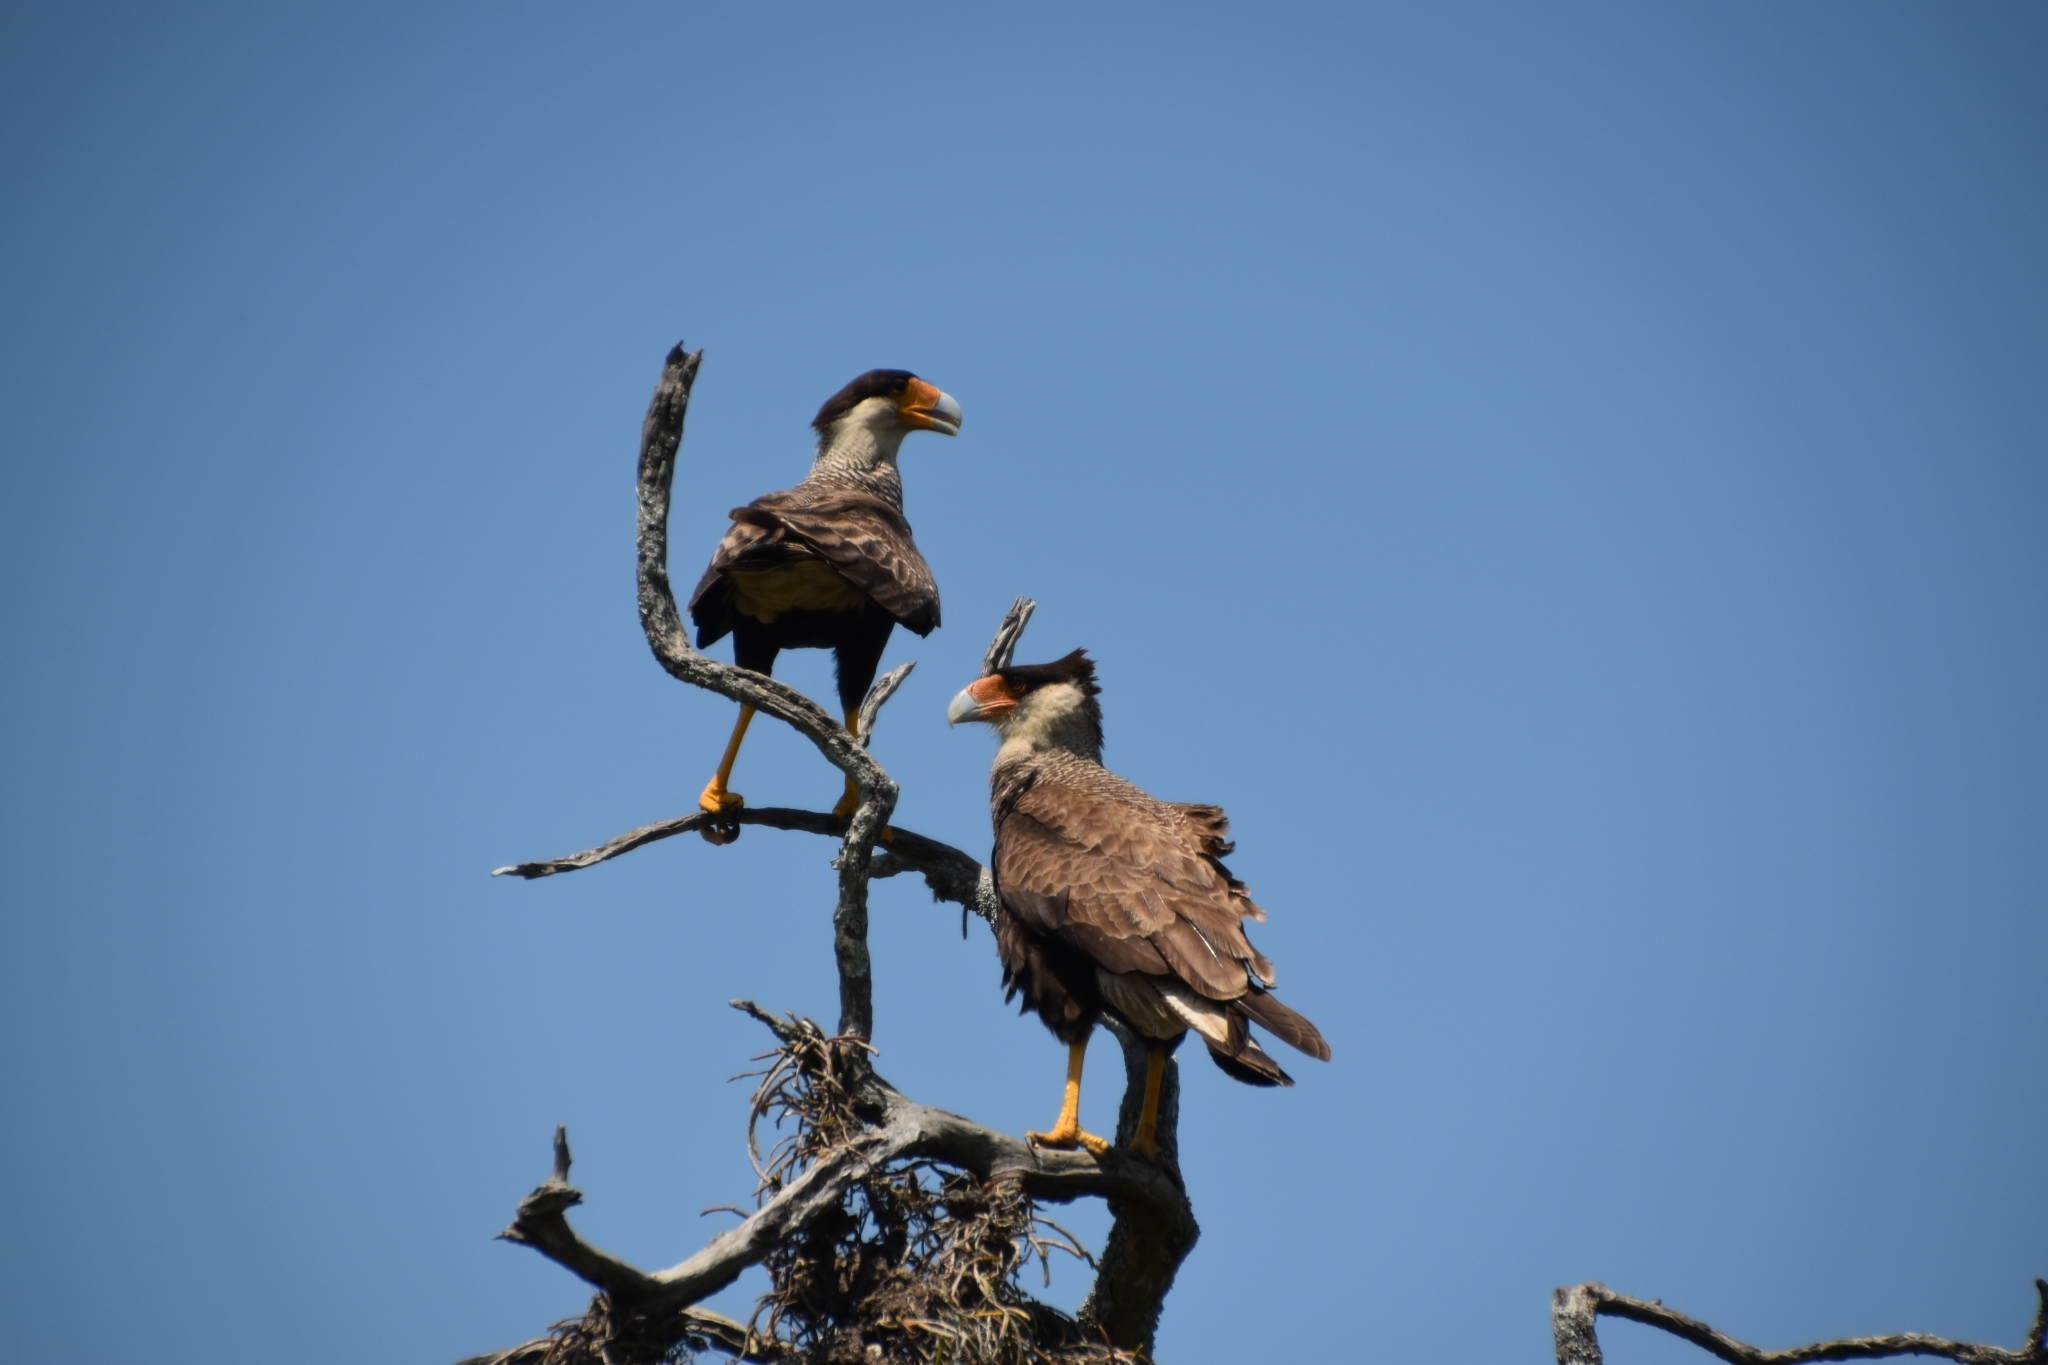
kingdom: Animalia
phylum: Chordata
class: Aves
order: Falconiformes
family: Falconidae
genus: Caracara
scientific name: Caracara plancus
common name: Southern caracara
